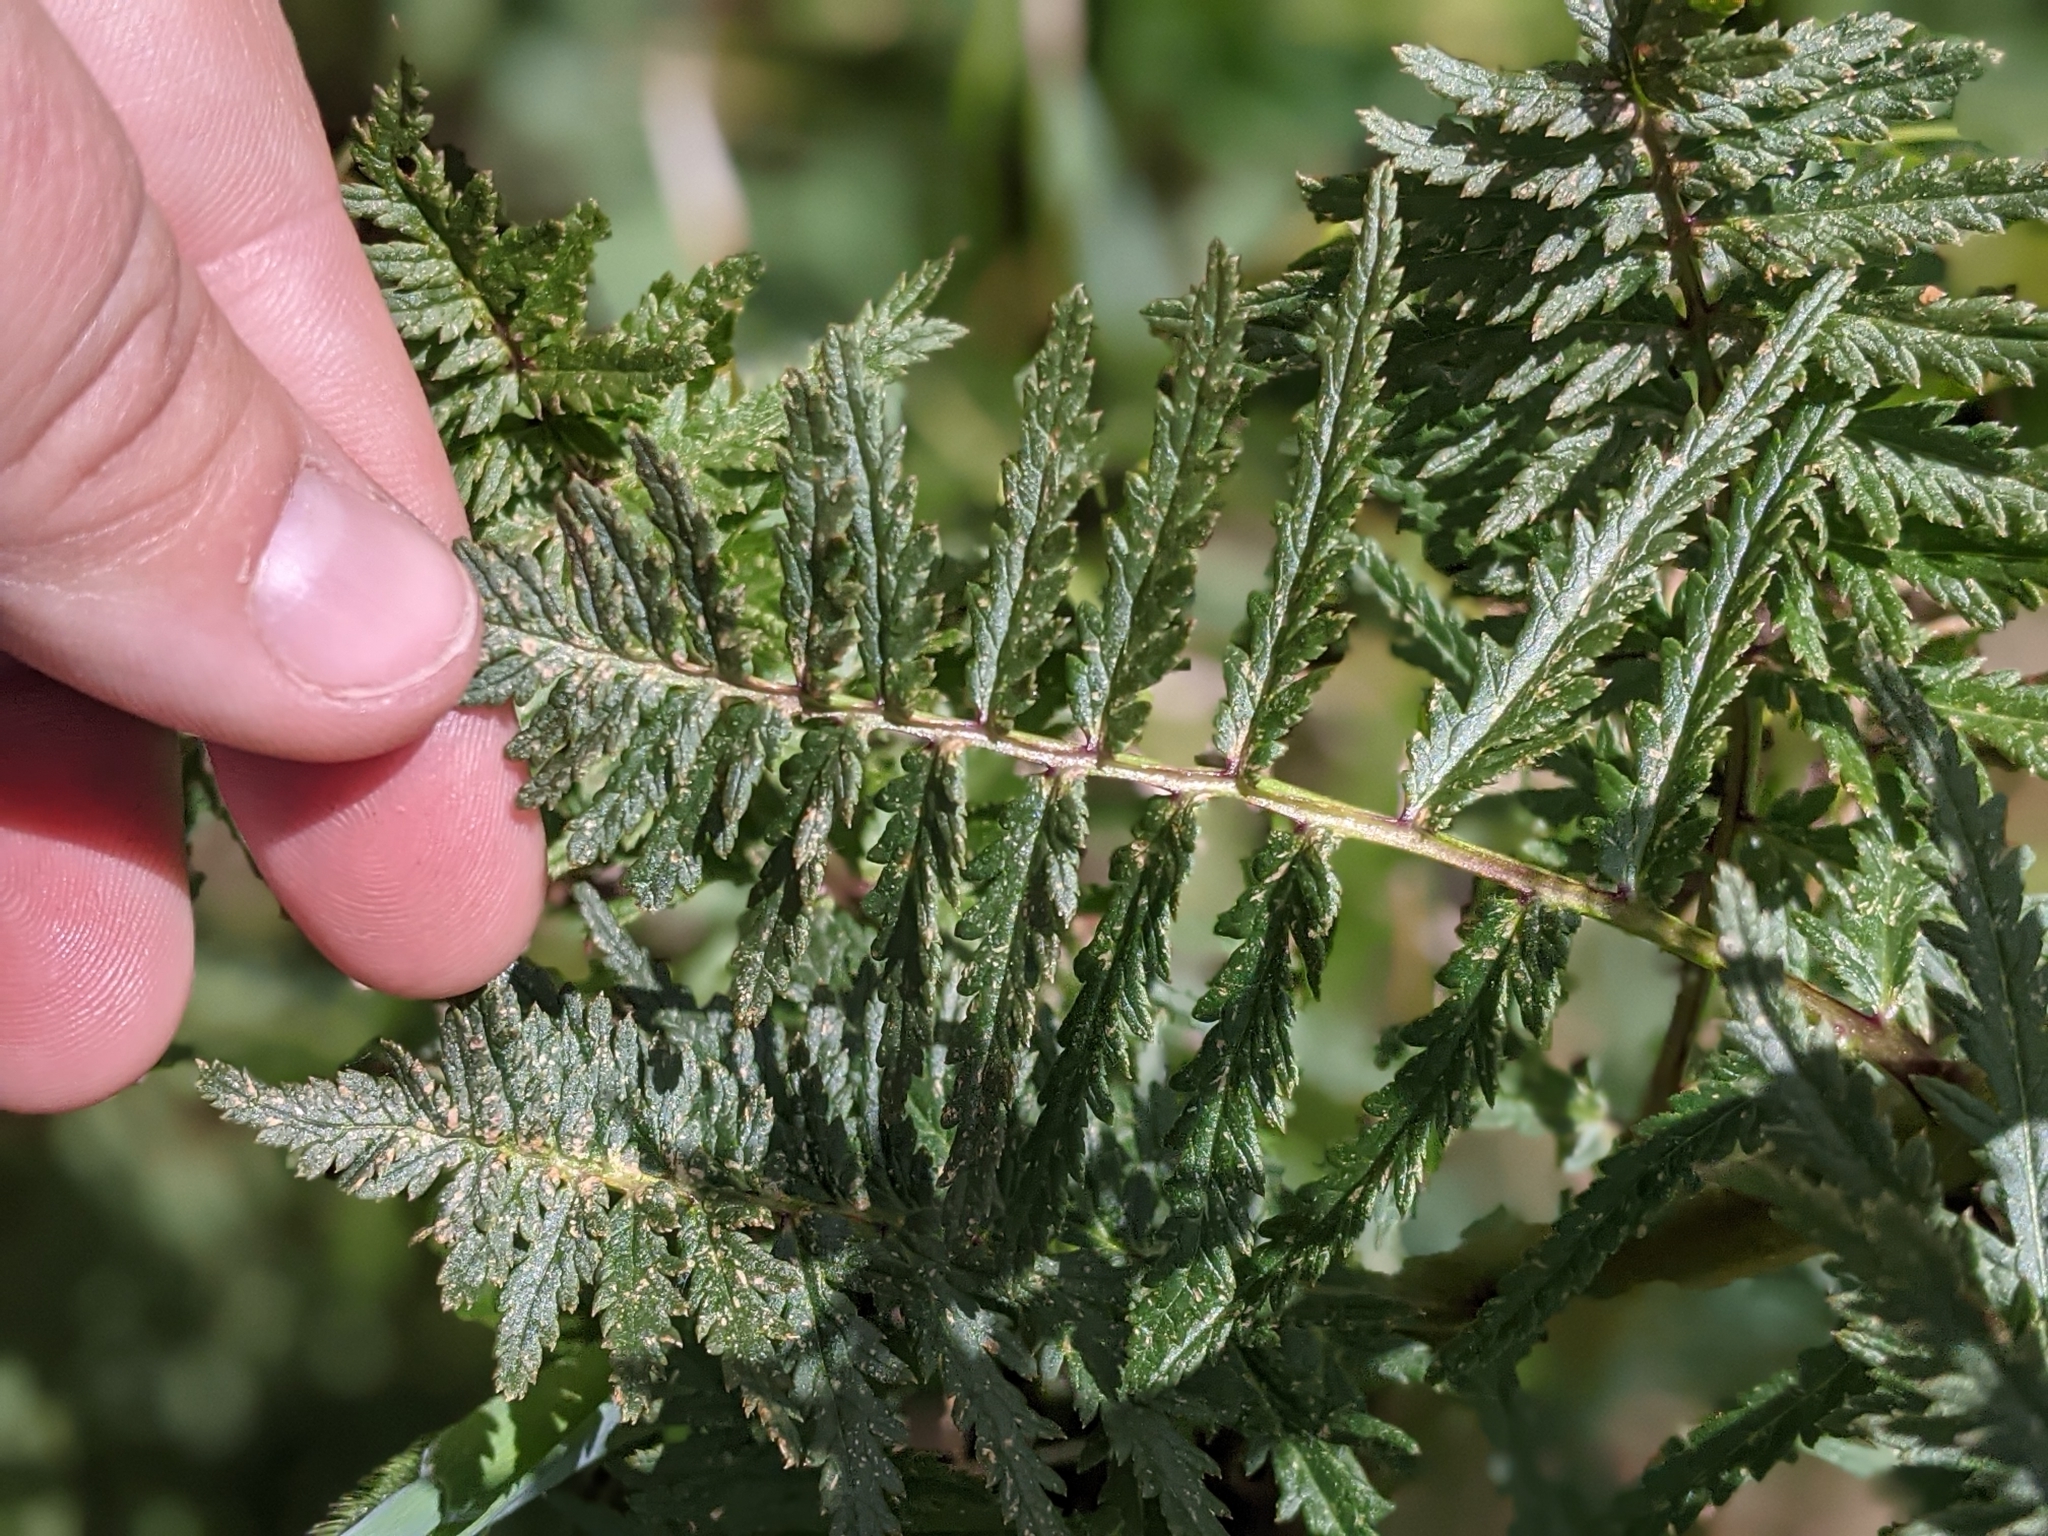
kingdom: Plantae
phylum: Tracheophyta
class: Magnoliopsida
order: Lamiales
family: Orobanchaceae
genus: Pedicularis
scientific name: Pedicularis bracteosa
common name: Bracted lousewort
